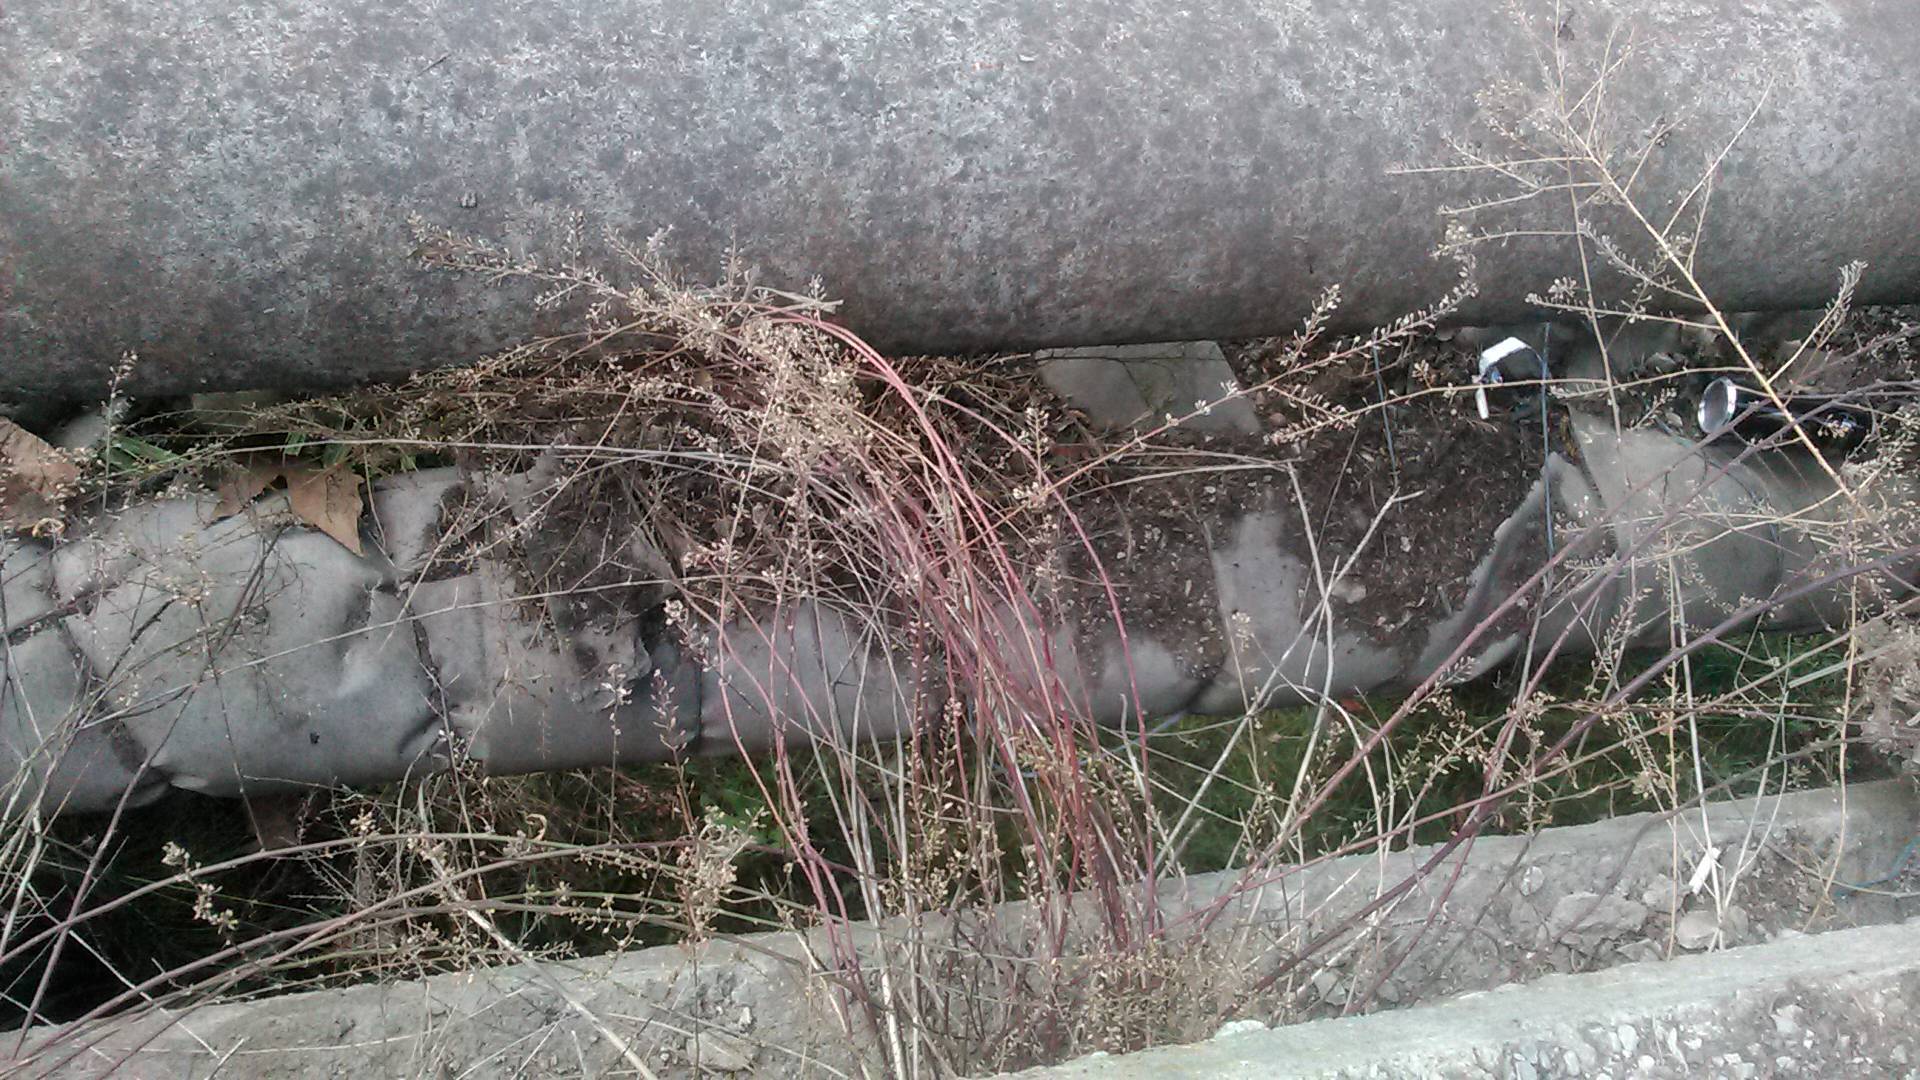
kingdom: Plantae
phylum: Tracheophyta
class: Magnoliopsida
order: Brassicales
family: Brassicaceae
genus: Lepidium
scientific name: Lepidium graminifolium
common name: Tall pepperwort
